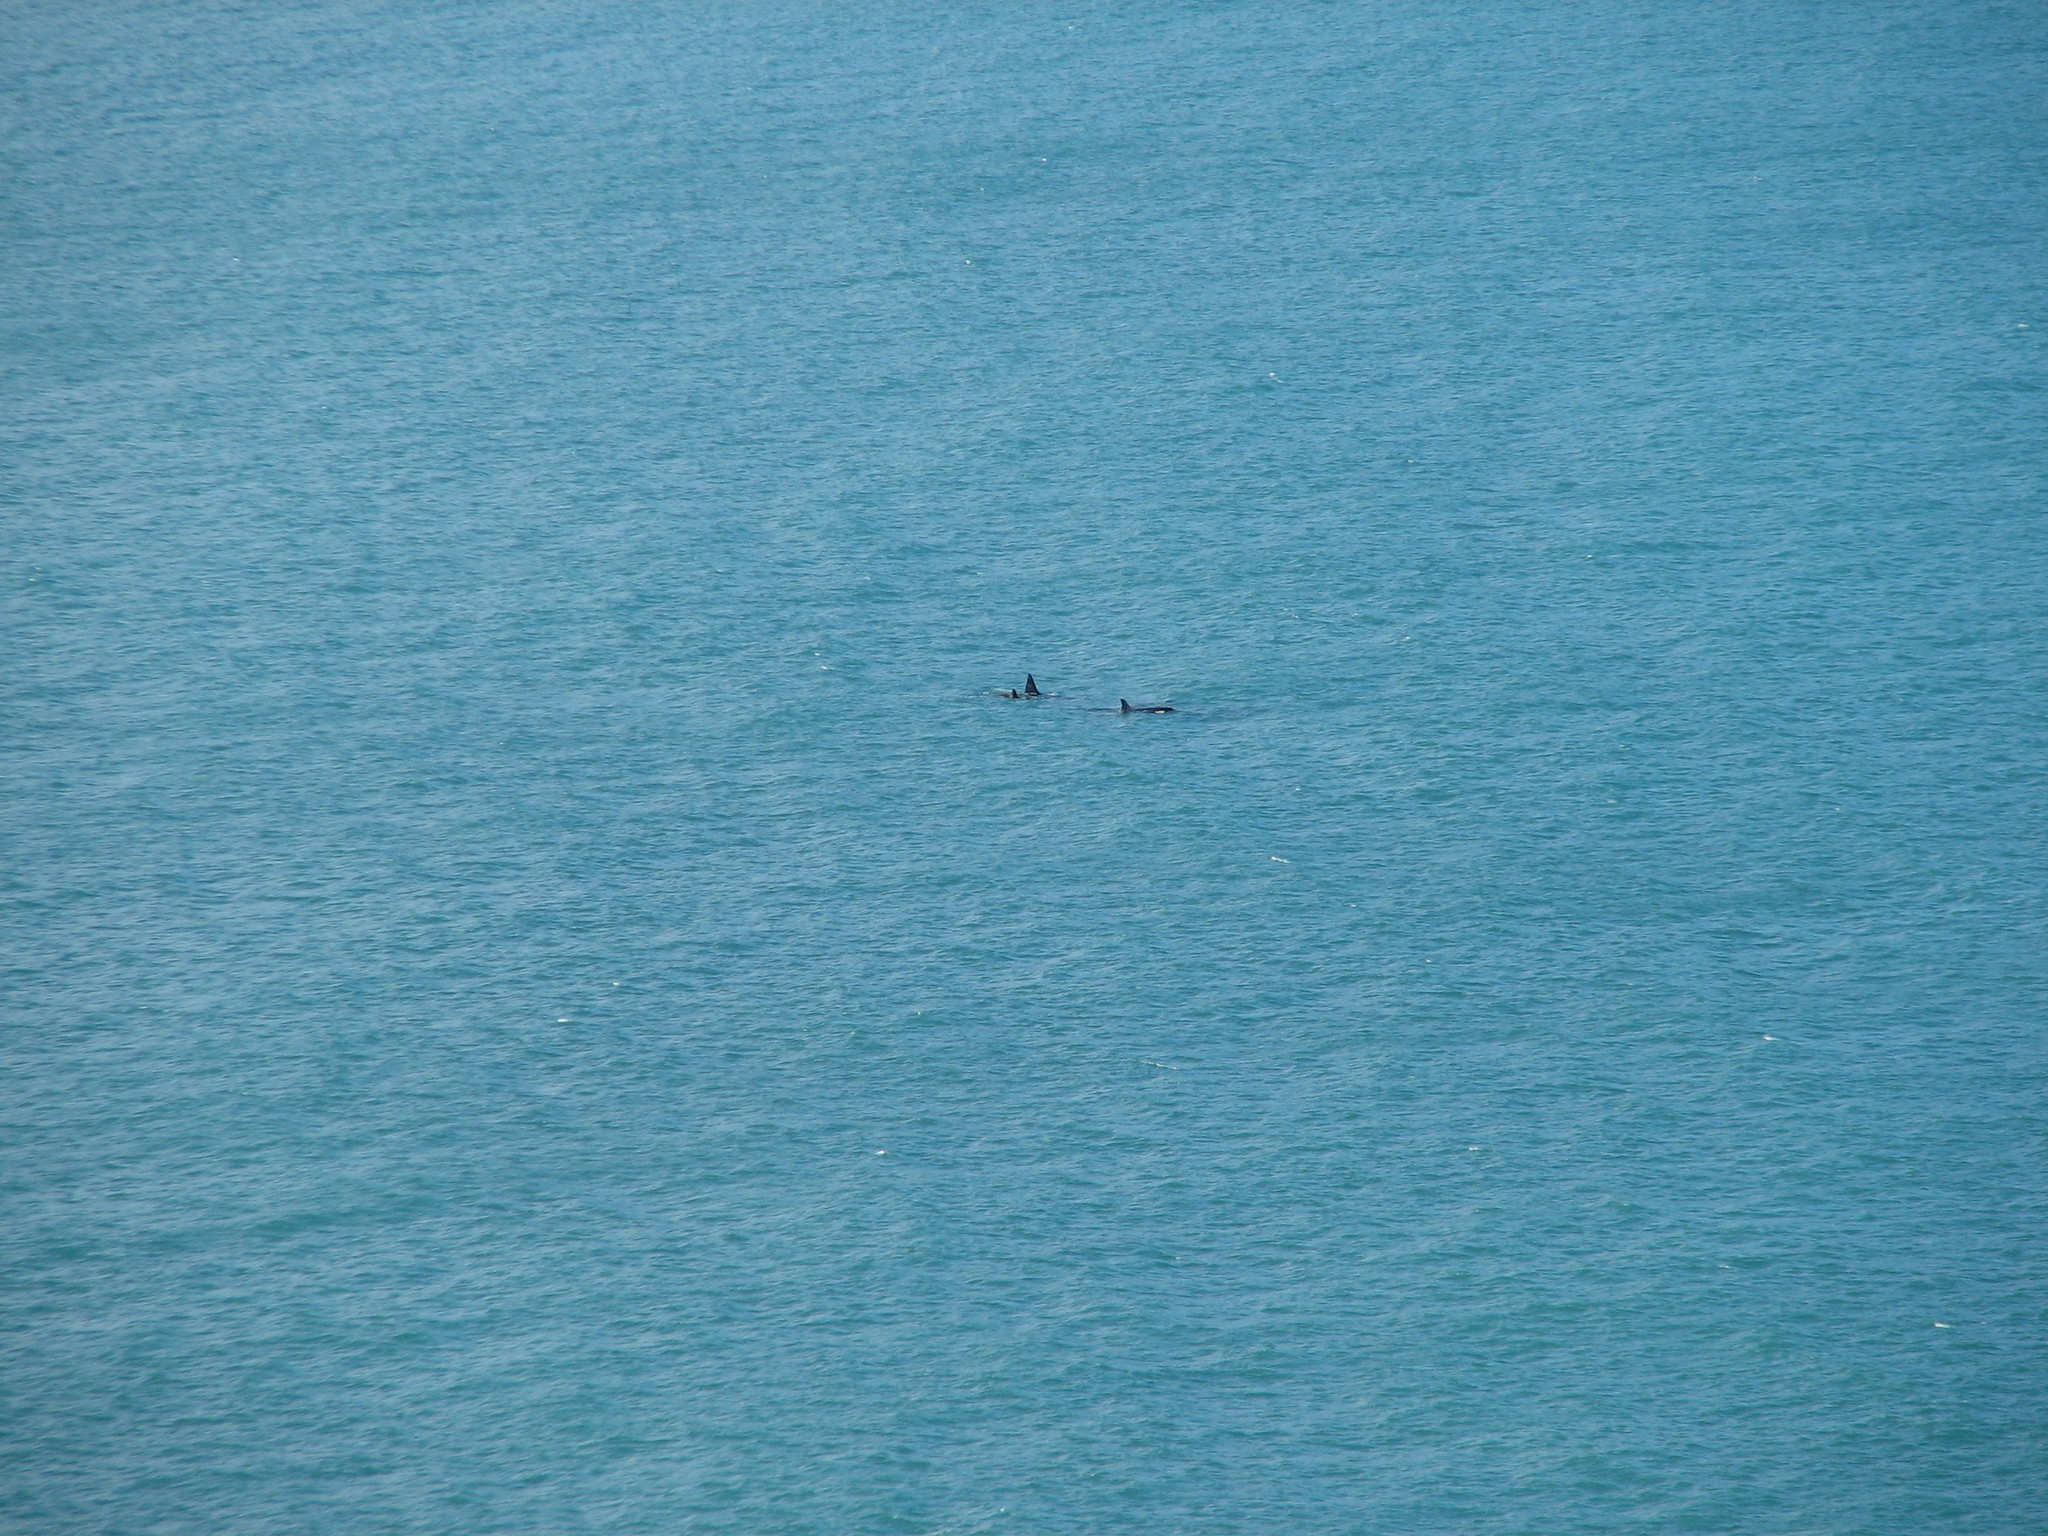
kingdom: Animalia
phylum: Chordata
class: Mammalia
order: Cetacea
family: Delphinidae
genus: Orcinus
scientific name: Orcinus orca
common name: Killer whale
